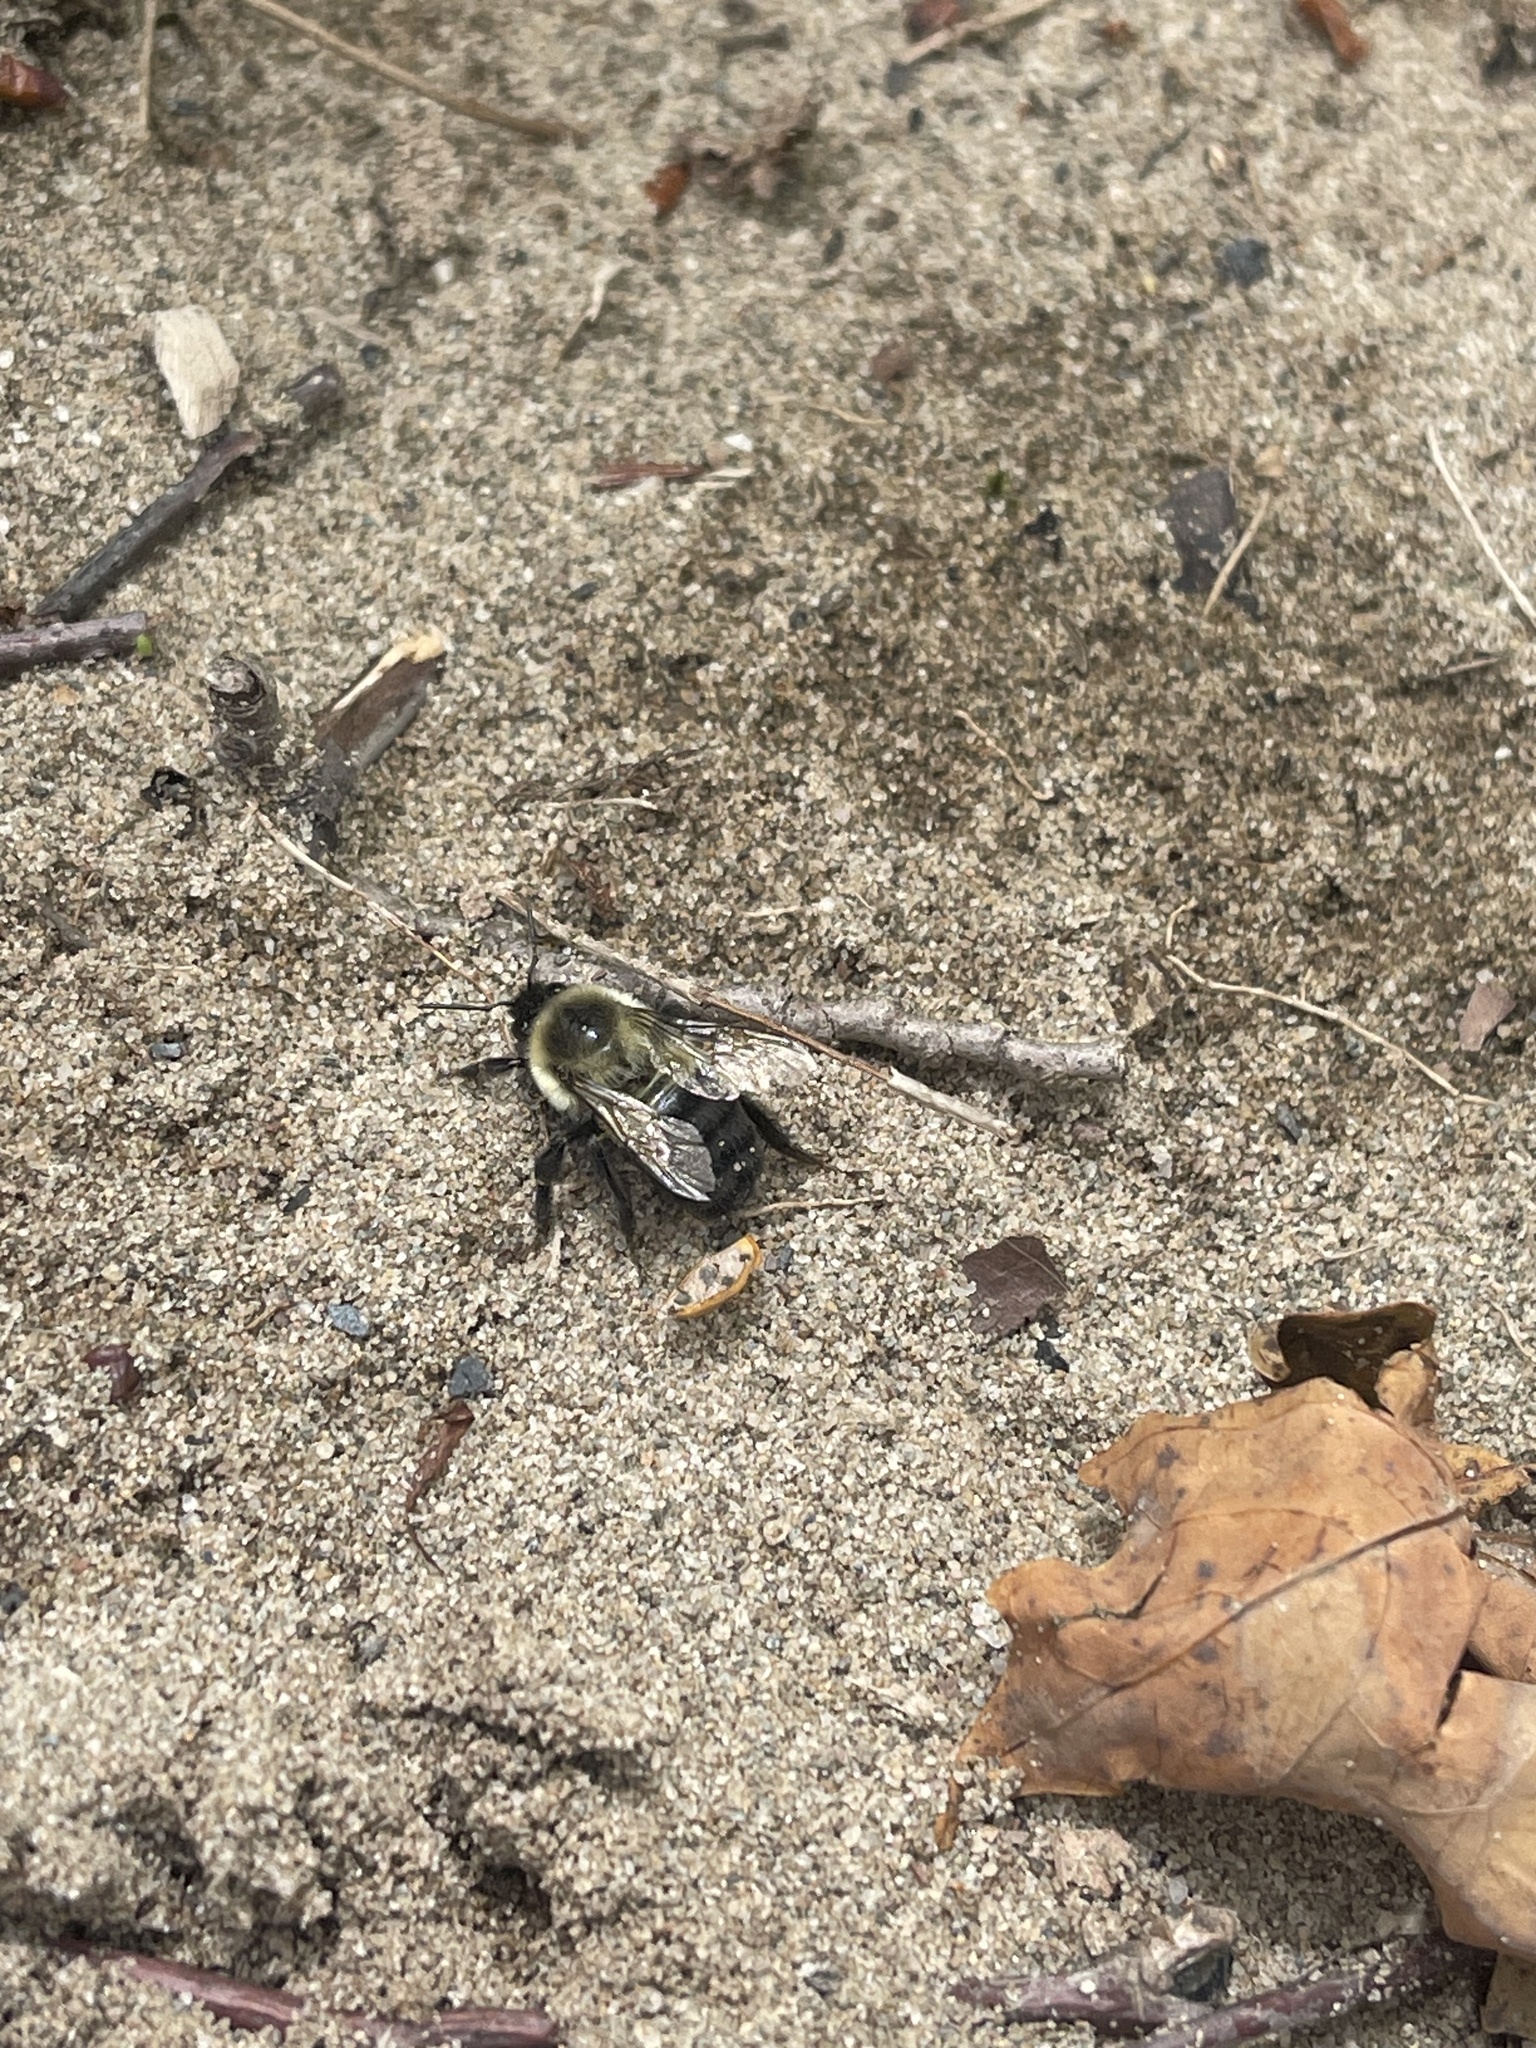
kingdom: Animalia
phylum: Arthropoda
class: Insecta
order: Hymenoptera
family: Apidae
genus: Bombus
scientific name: Bombus impatiens
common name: Common eastern bumble bee
